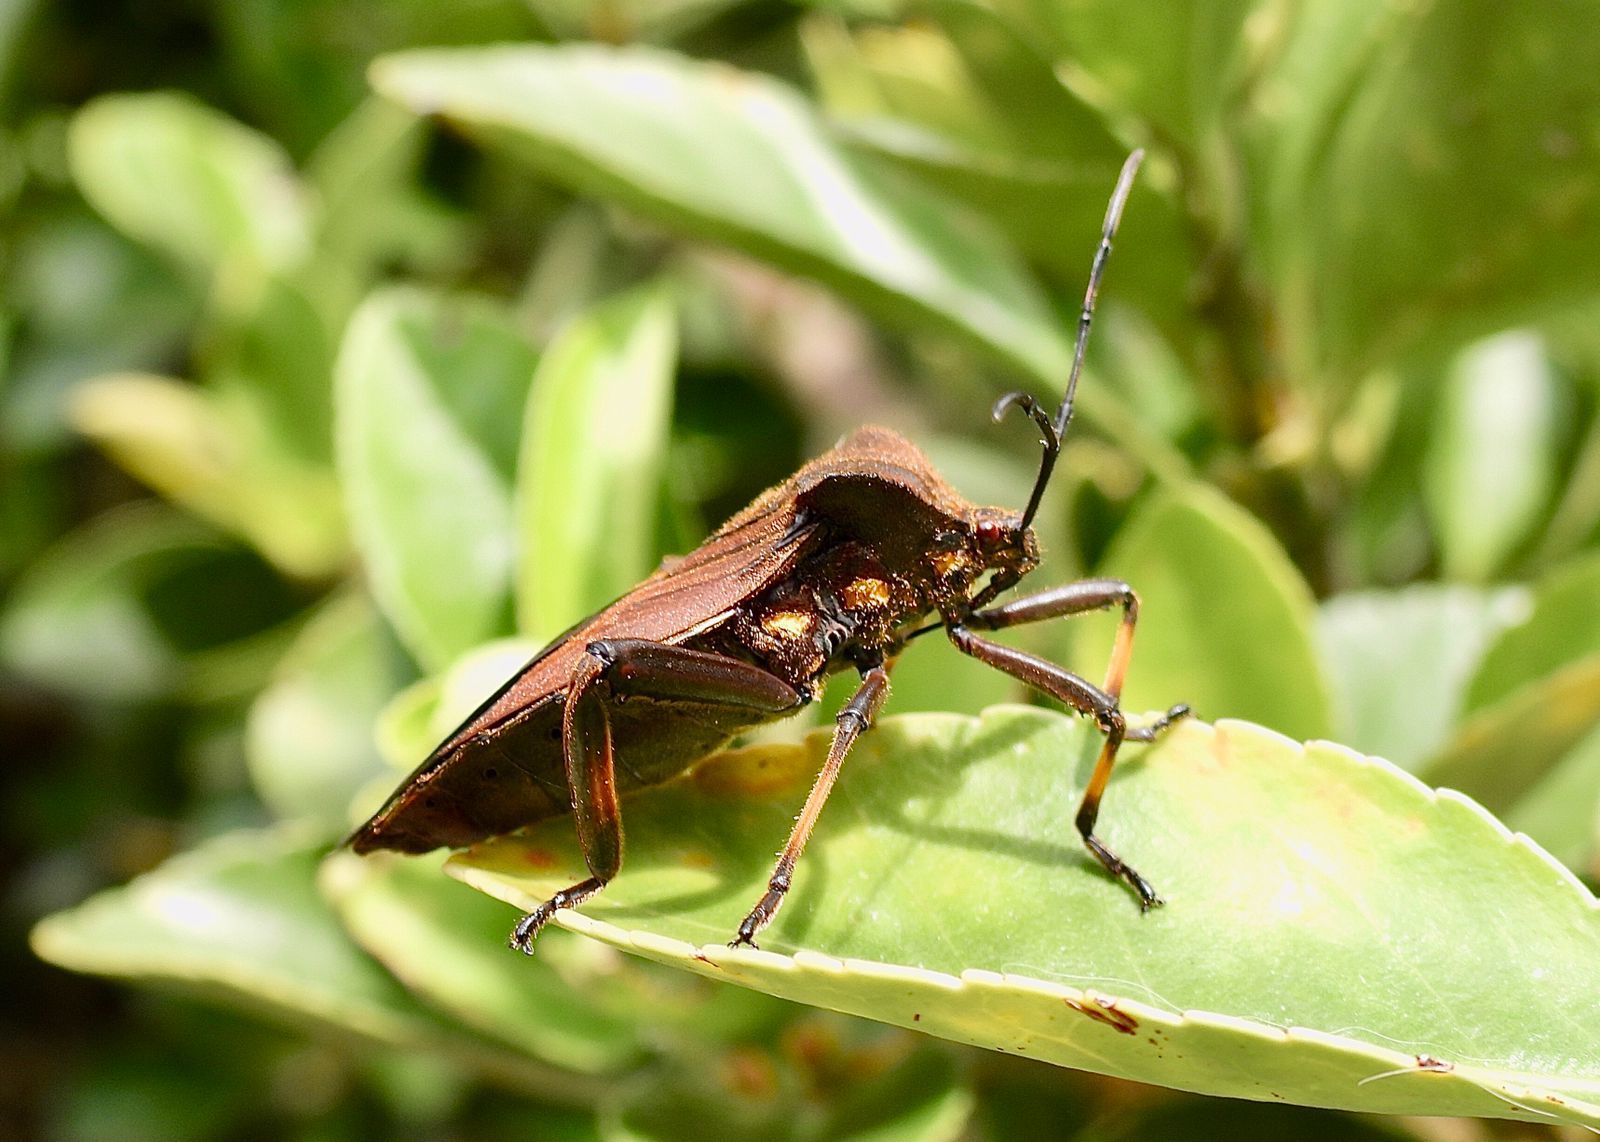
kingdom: Animalia
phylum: Arthropoda
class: Insecta
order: Hemiptera
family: Coreidae
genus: Thasus
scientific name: Thasus heteropus
